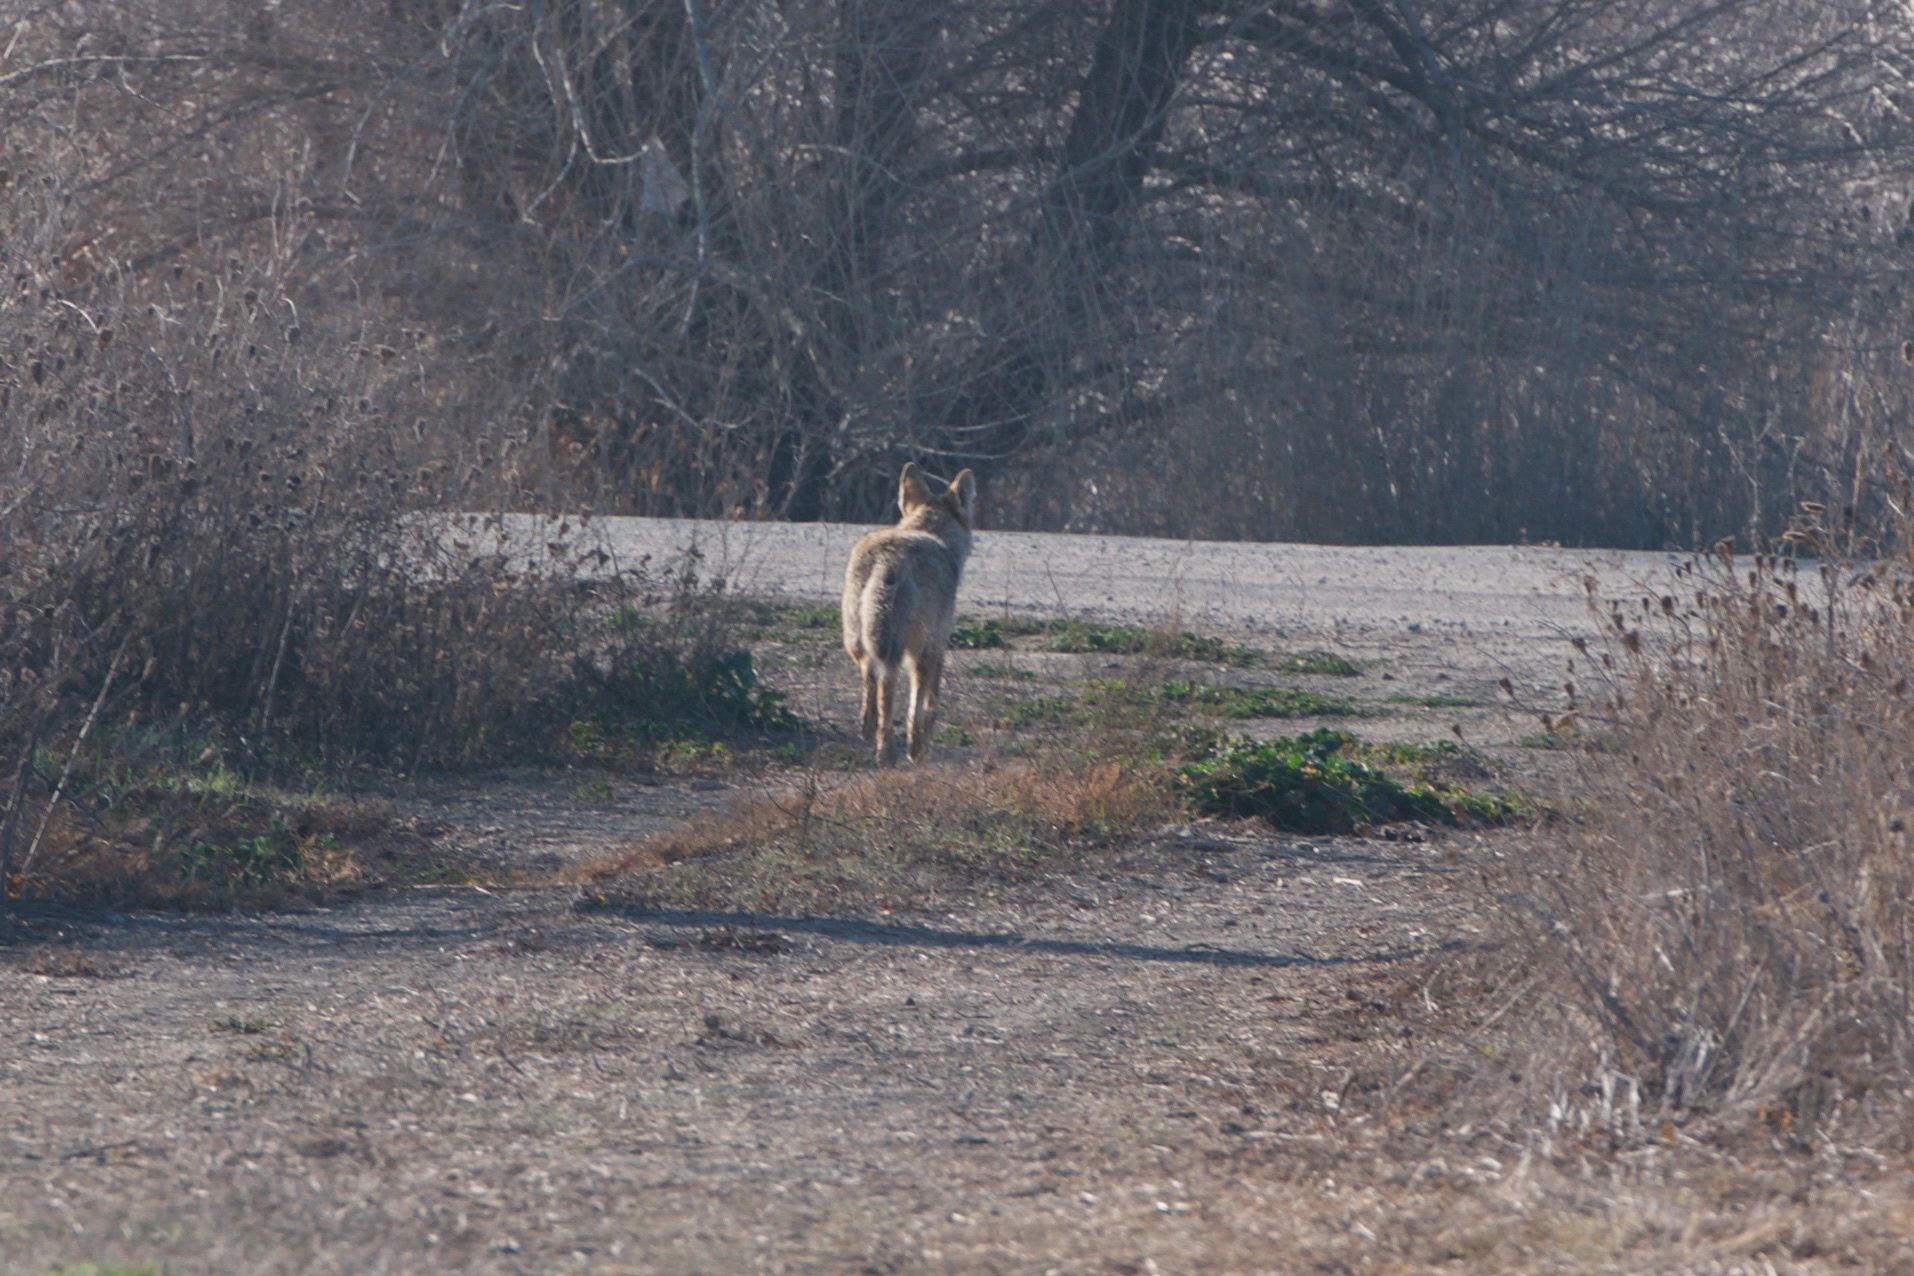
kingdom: Animalia
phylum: Chordata
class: Mammalia
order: Carnivora
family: Canidae
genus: Canis
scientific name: Canis latrans
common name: Coyote
